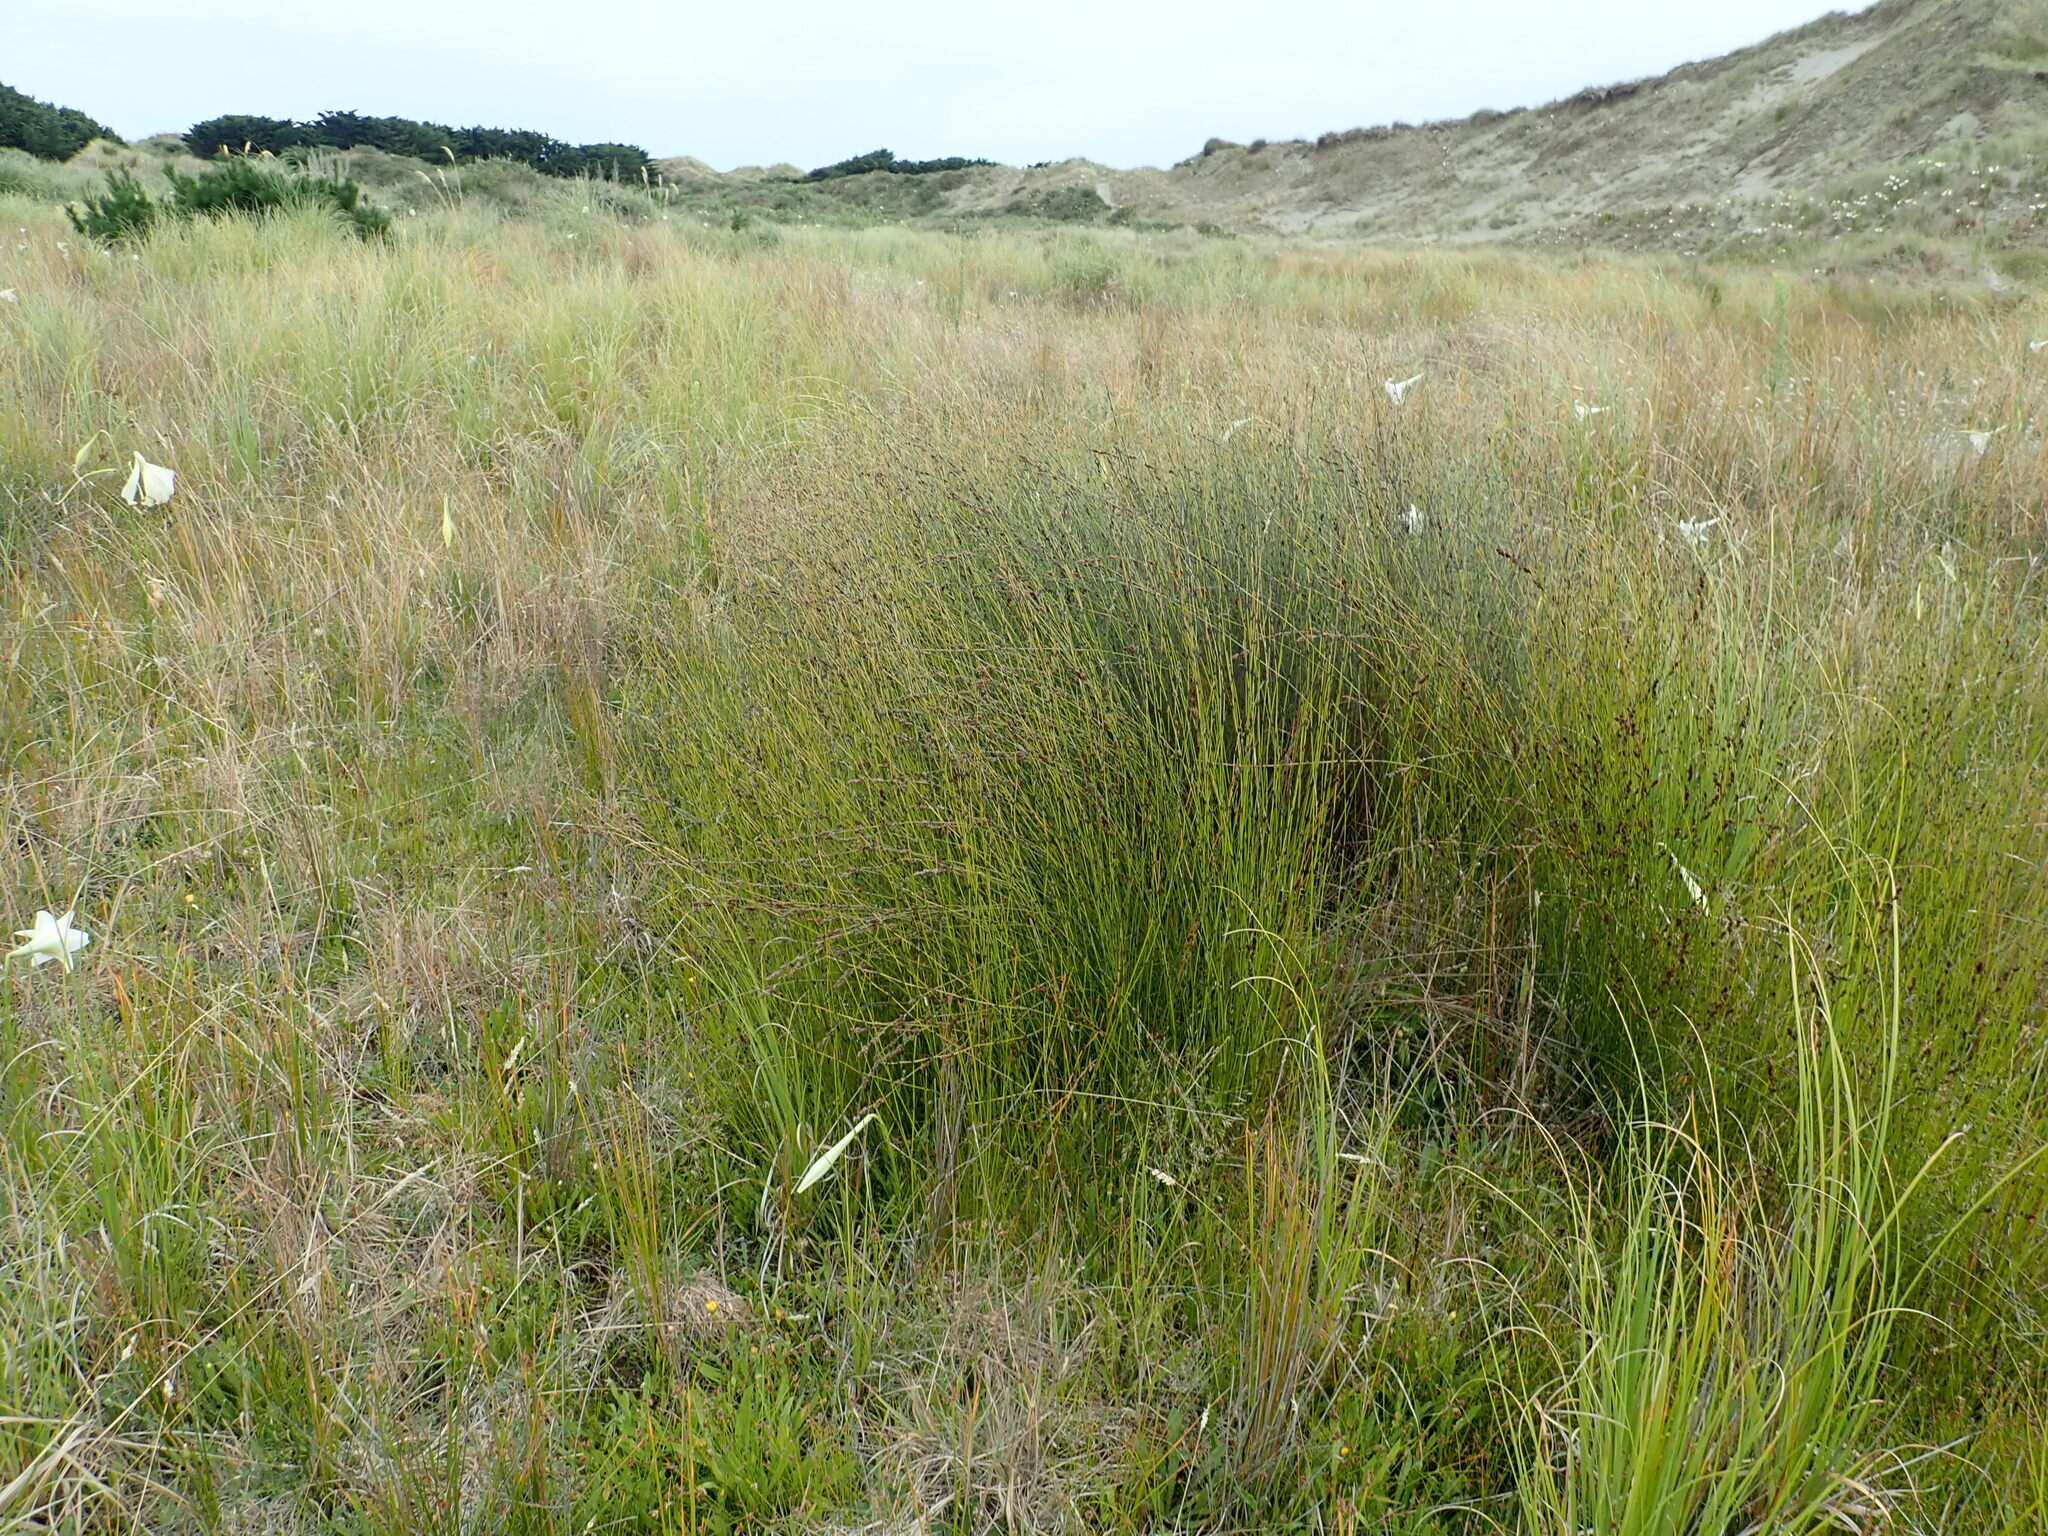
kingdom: Plantae
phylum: Tracheophyta
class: Liliopsida
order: Poales
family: Restionaceae
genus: Apodasmia
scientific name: Apodasmia similis
